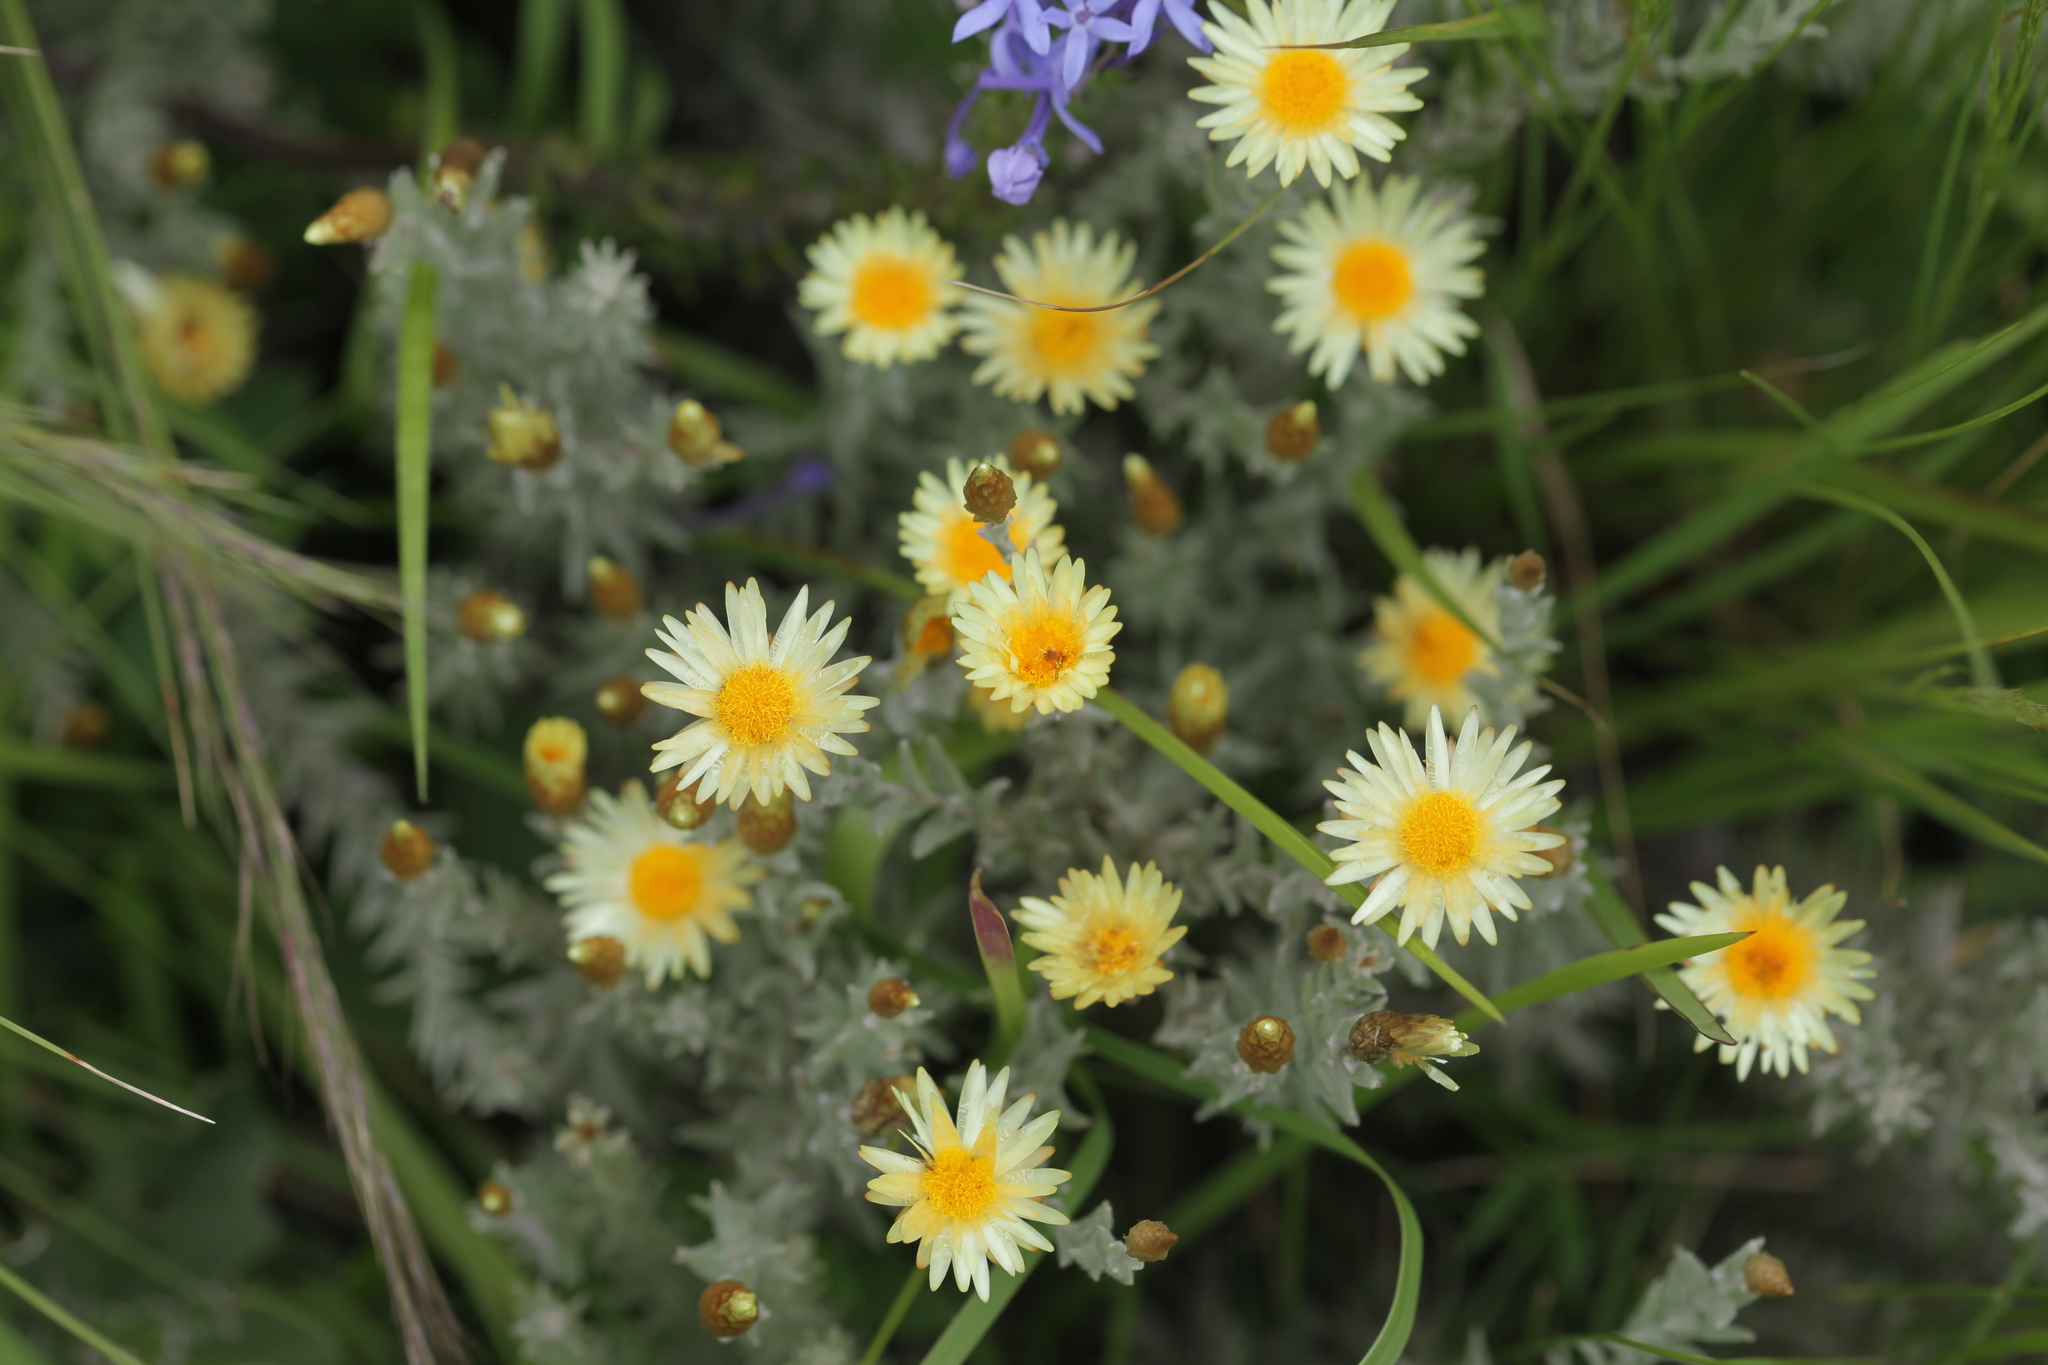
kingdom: Plantae
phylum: Tracheophyta
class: Magnoliopsida
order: Asterales
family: Asteraceae
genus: Helichrysum
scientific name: Helichrysum herbaceum
